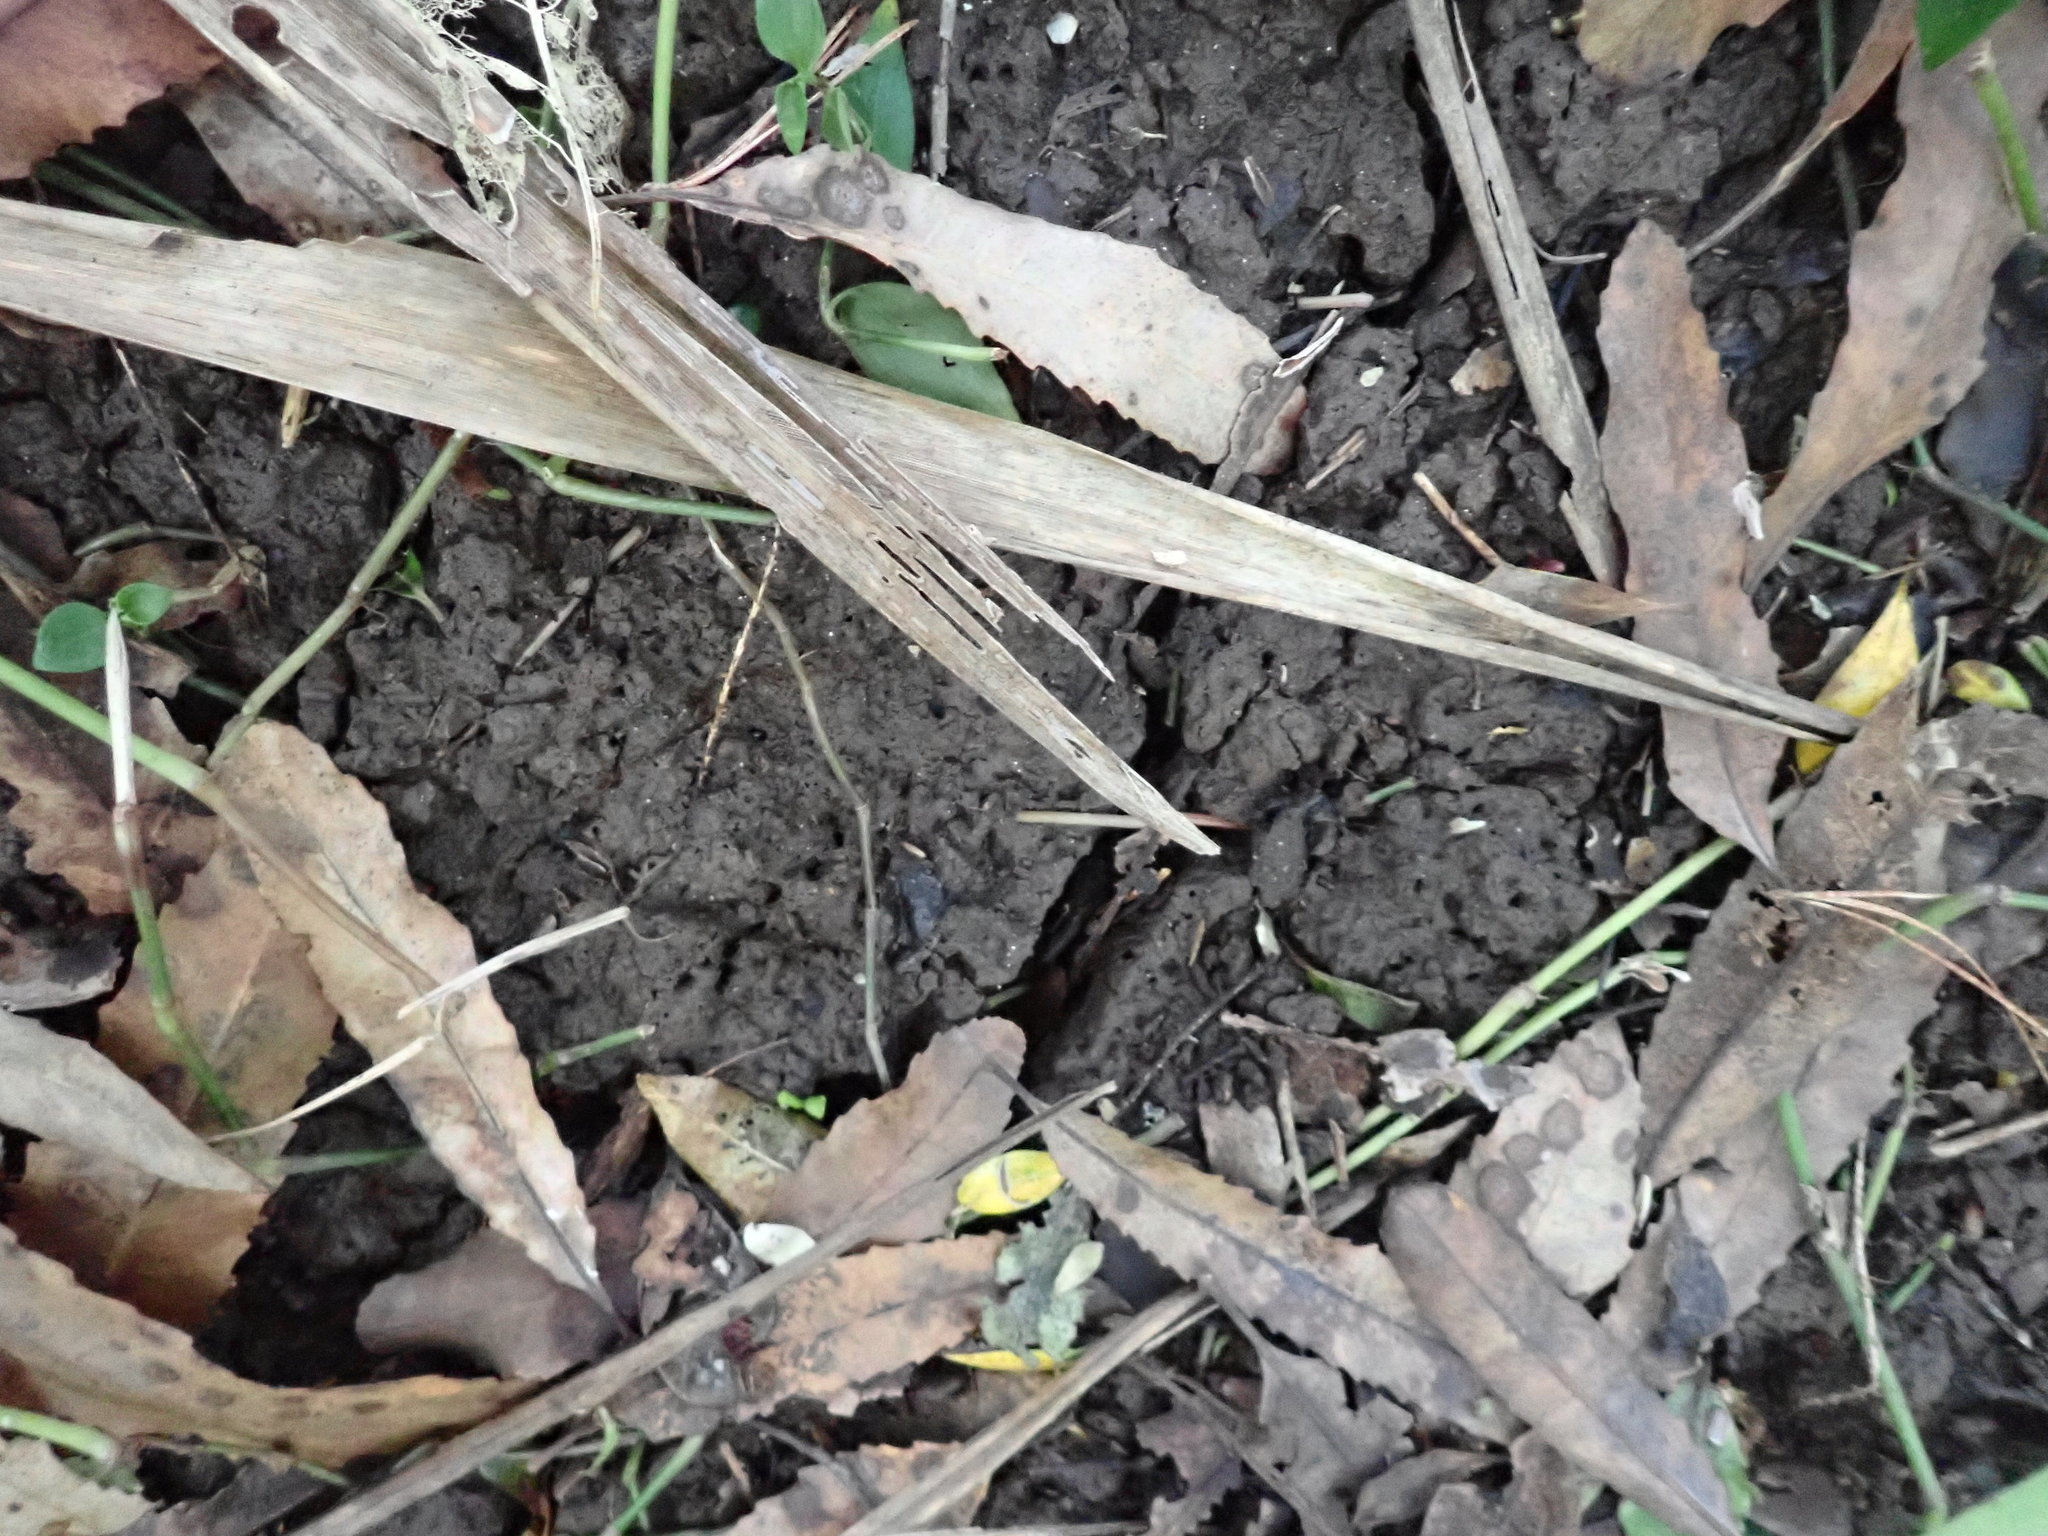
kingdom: Plantae
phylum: Tracheophyta
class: Liliopsida
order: Commelinales
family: Commelinaceae
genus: Tradescantia
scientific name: Tradescantia fluminensis
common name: Wandering-jew
